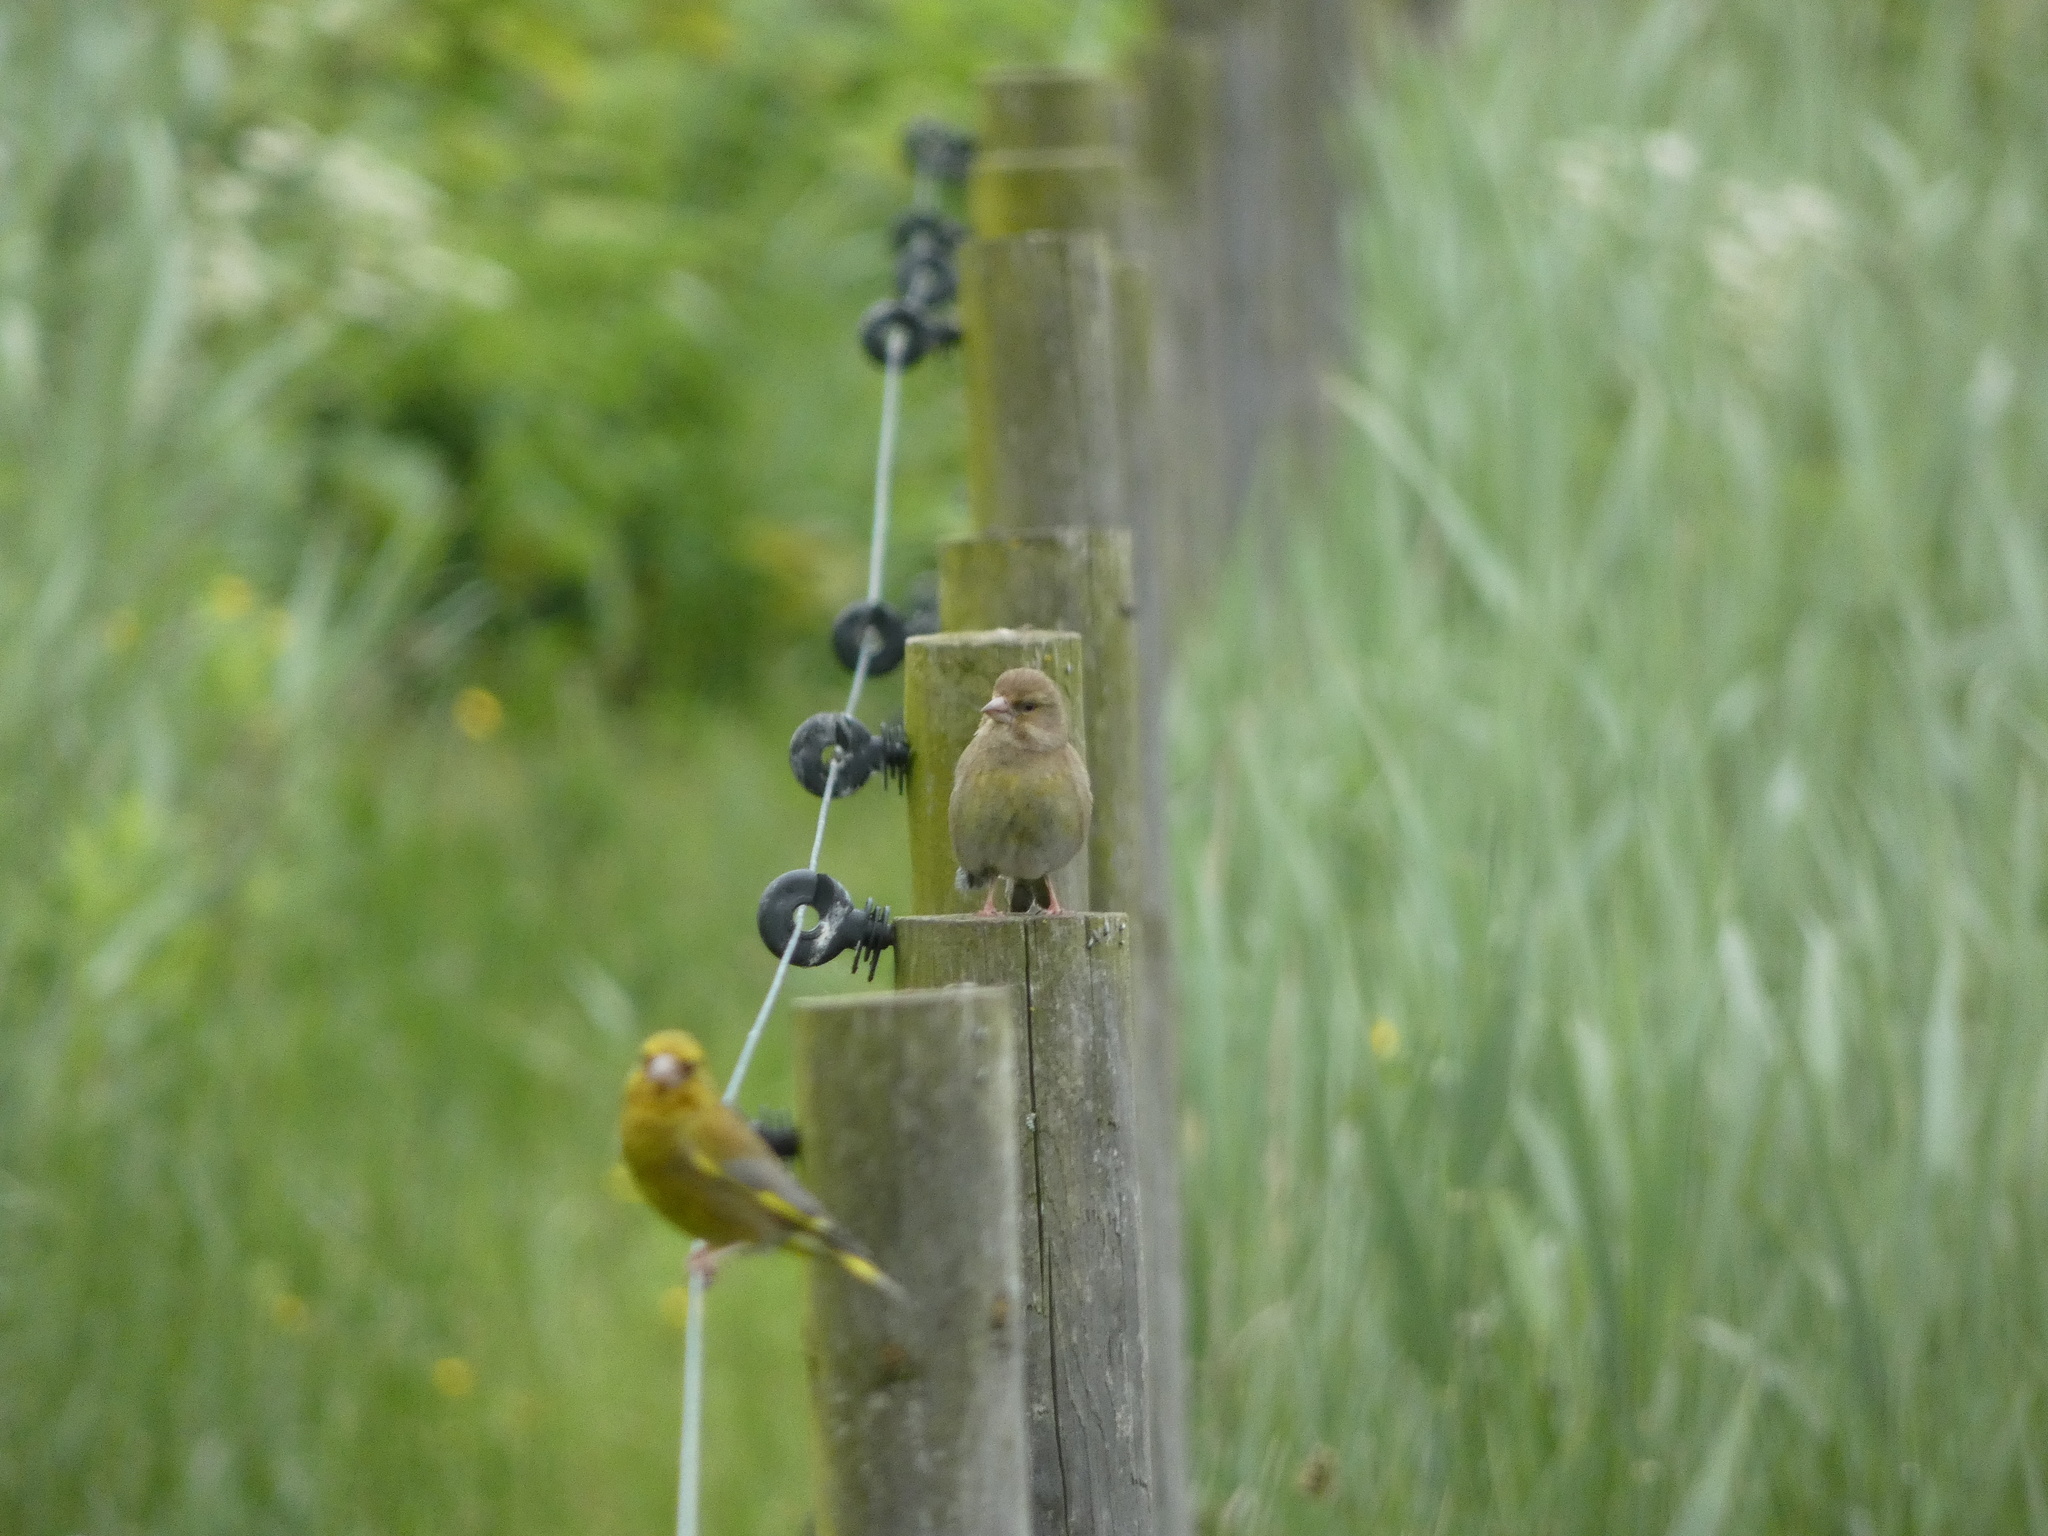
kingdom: Plantae
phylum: Tracheophyta
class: Liliopsida
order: Poales
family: Poaceae
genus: Chloris
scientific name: Chloris chloris
